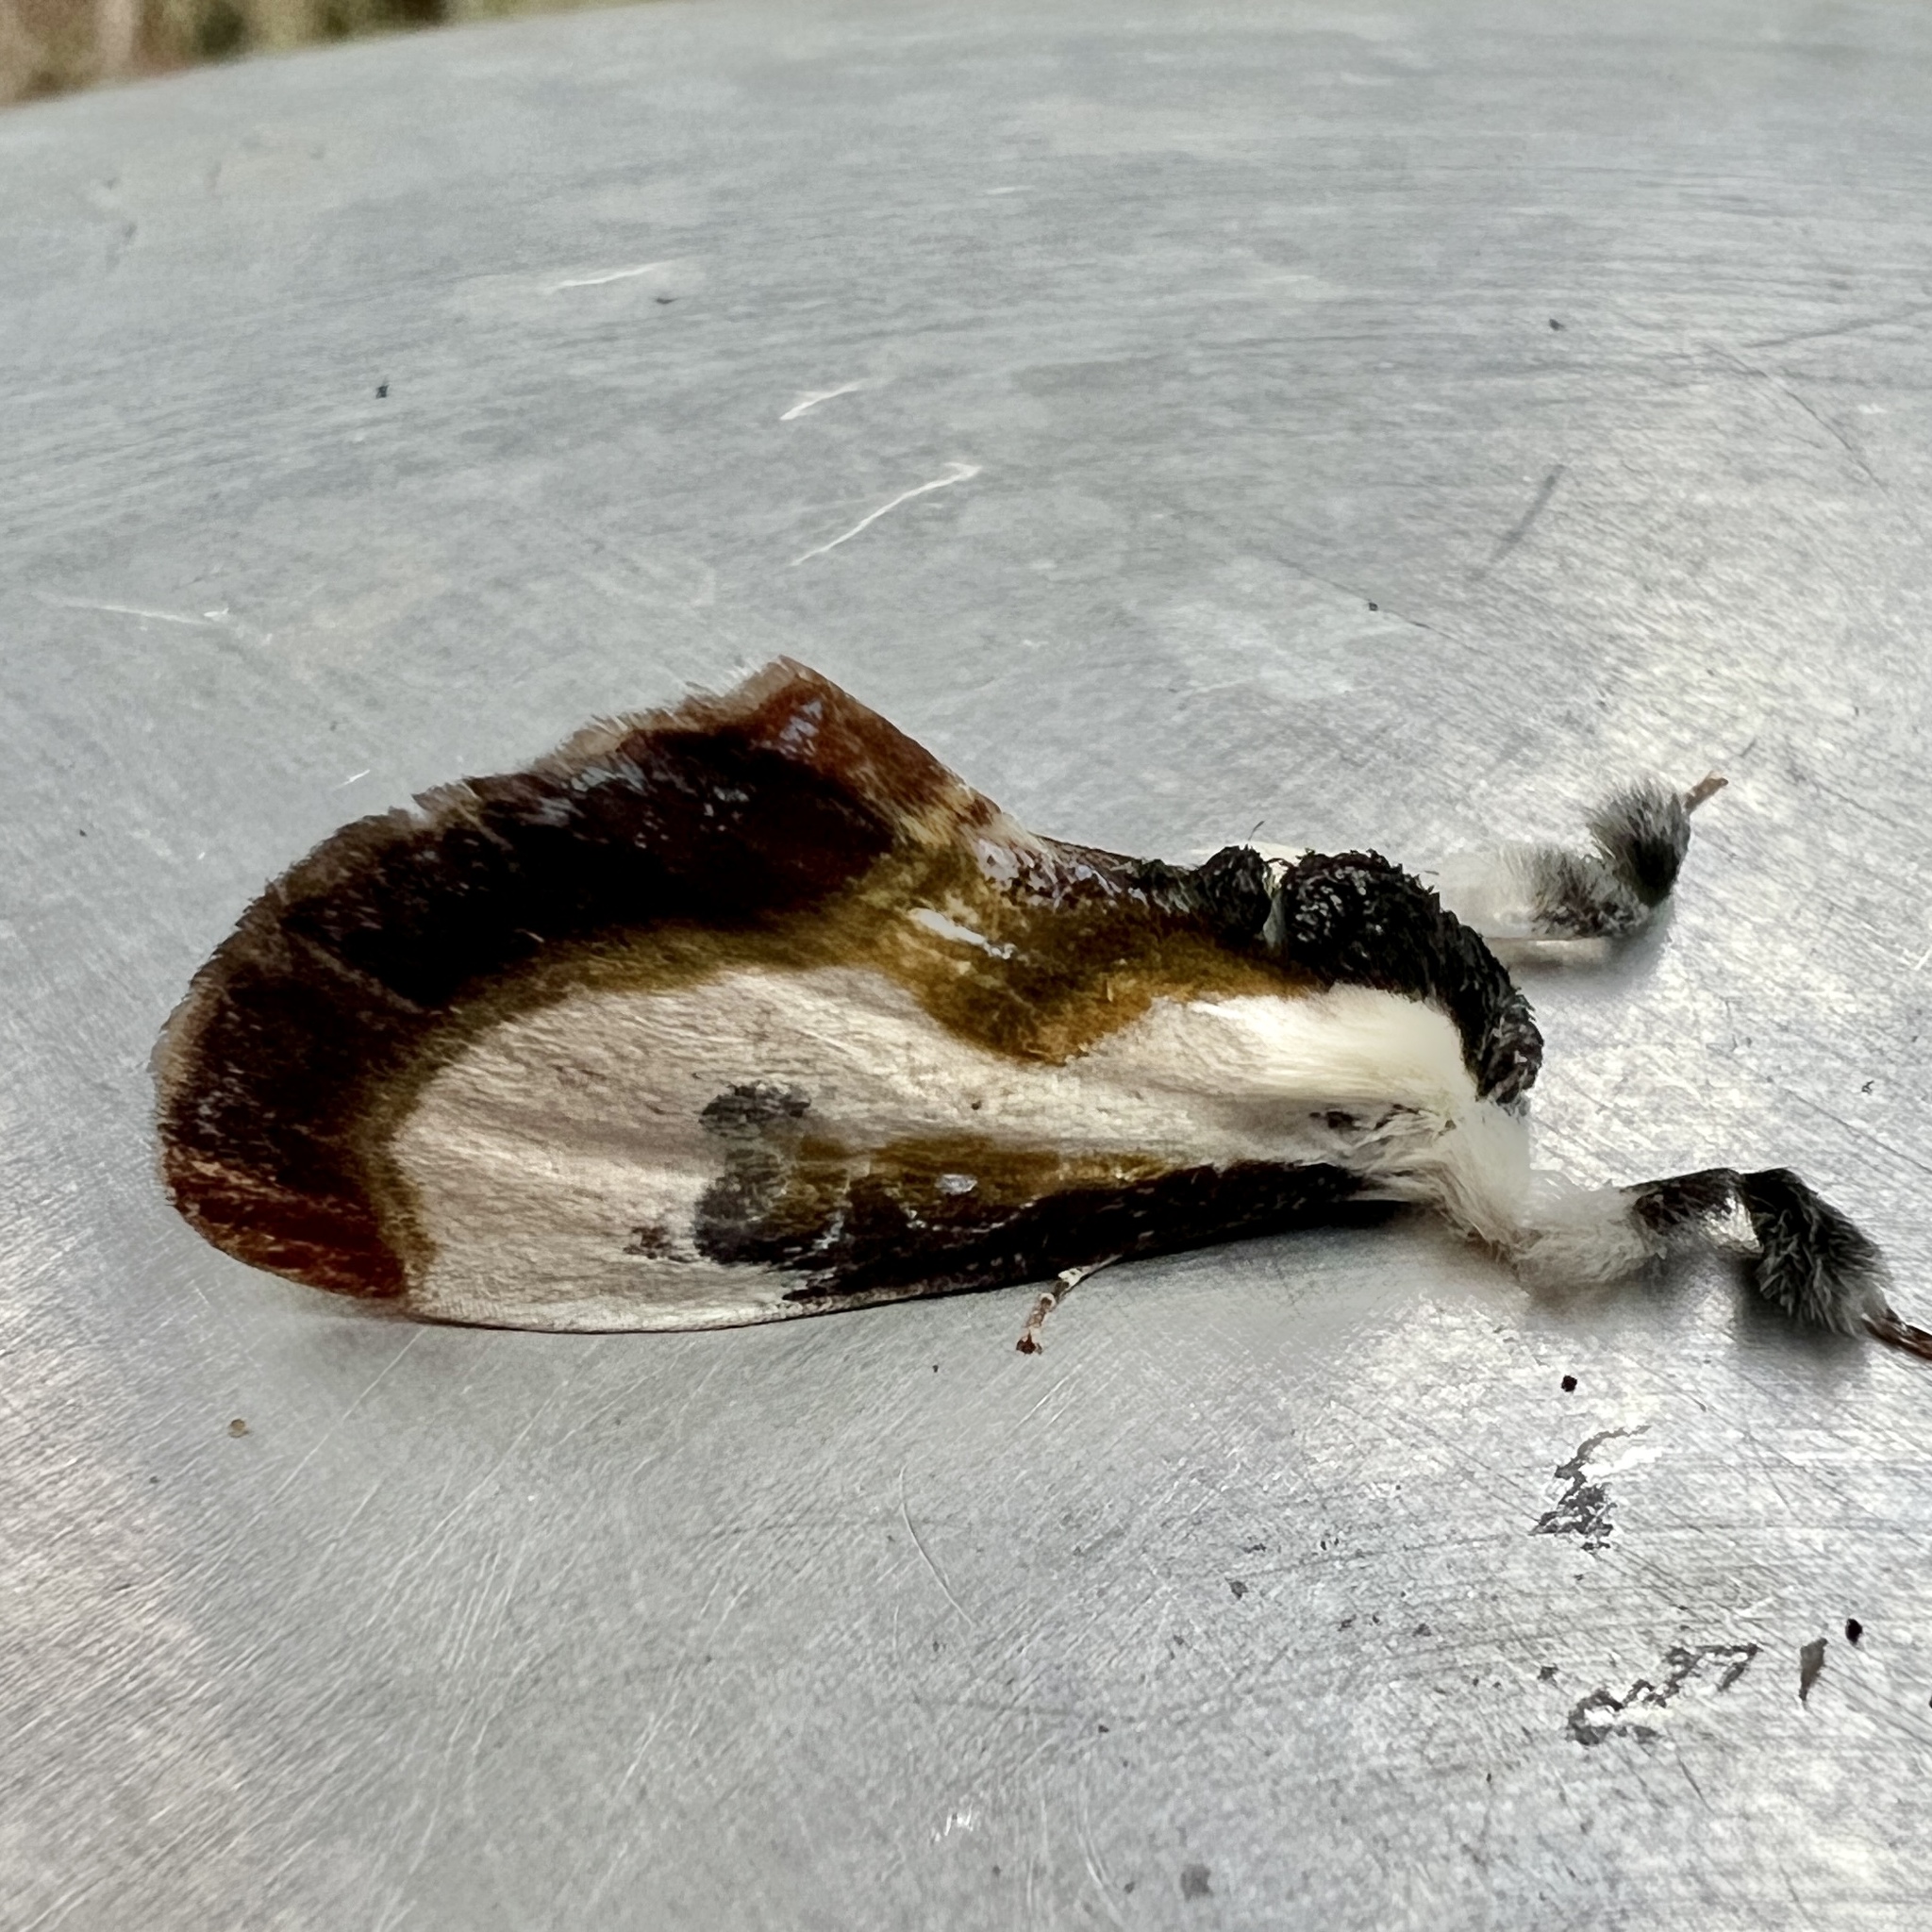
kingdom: Animalia
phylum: Arthropoda
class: Insecta
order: Lepidoptera
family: Noctuidae
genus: Eudryas
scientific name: Eudryas grata
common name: Beautiful wood-nymph
